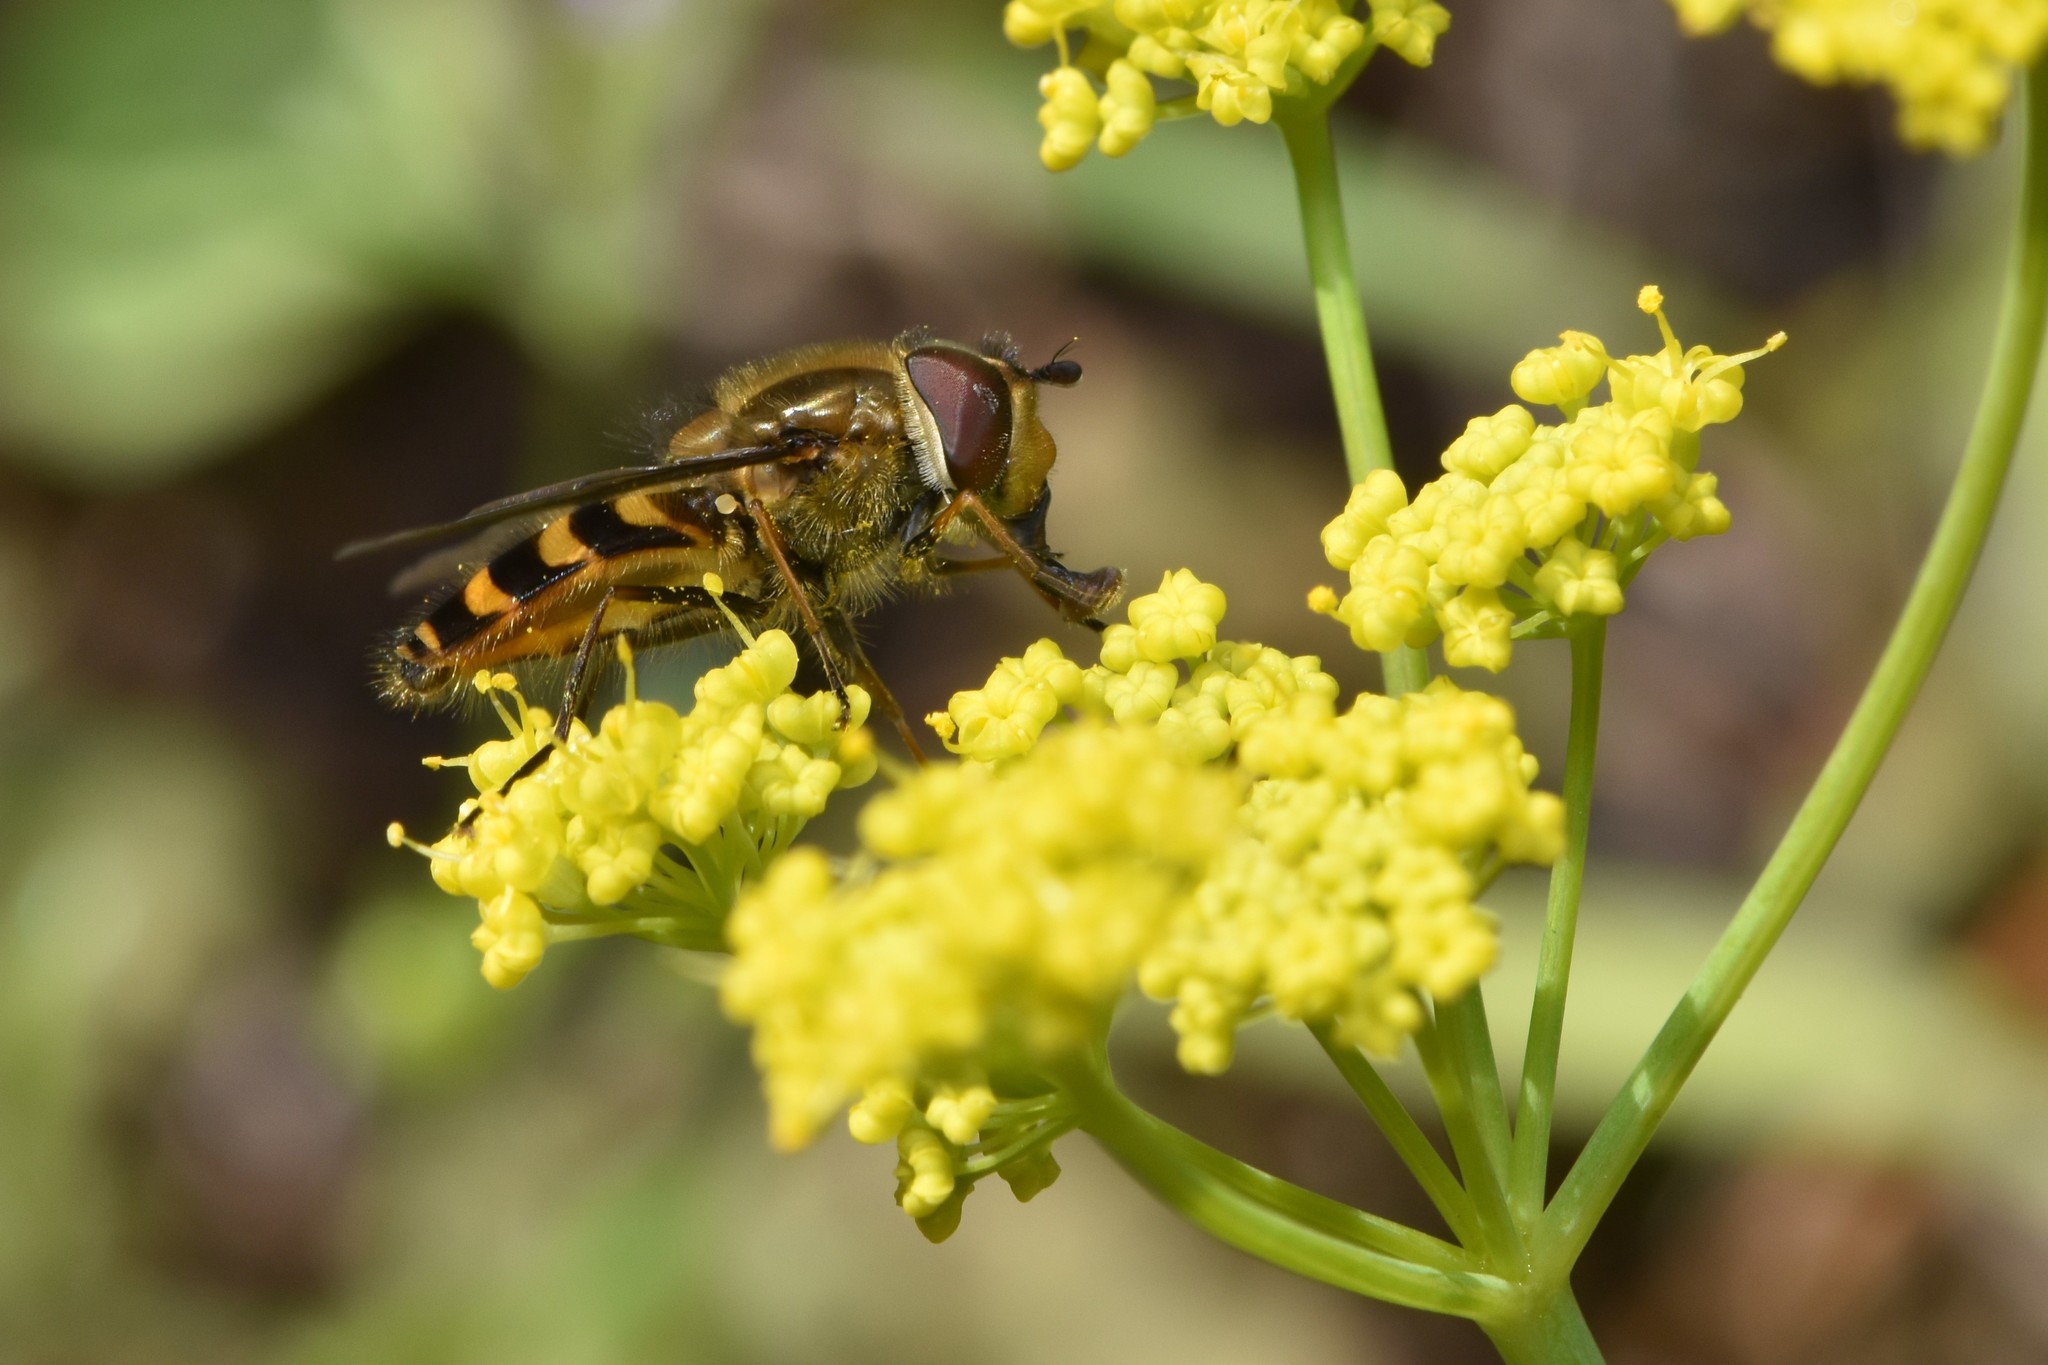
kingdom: Animalia
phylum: Arthropoda
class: Insecta
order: Diptera
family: Syrphidae
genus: Syrphus
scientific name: Syrphus torvus
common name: Hairy-eyed flower fly
